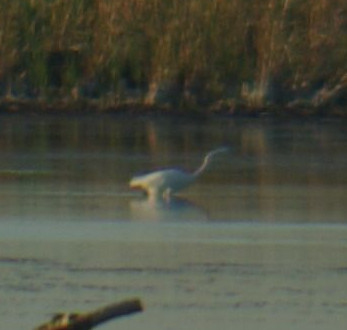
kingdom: Animalia
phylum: Chordata
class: Aves
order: Pelecaniformes
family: Ardeidae
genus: Ardea
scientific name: Ardea alba
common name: Great egret
